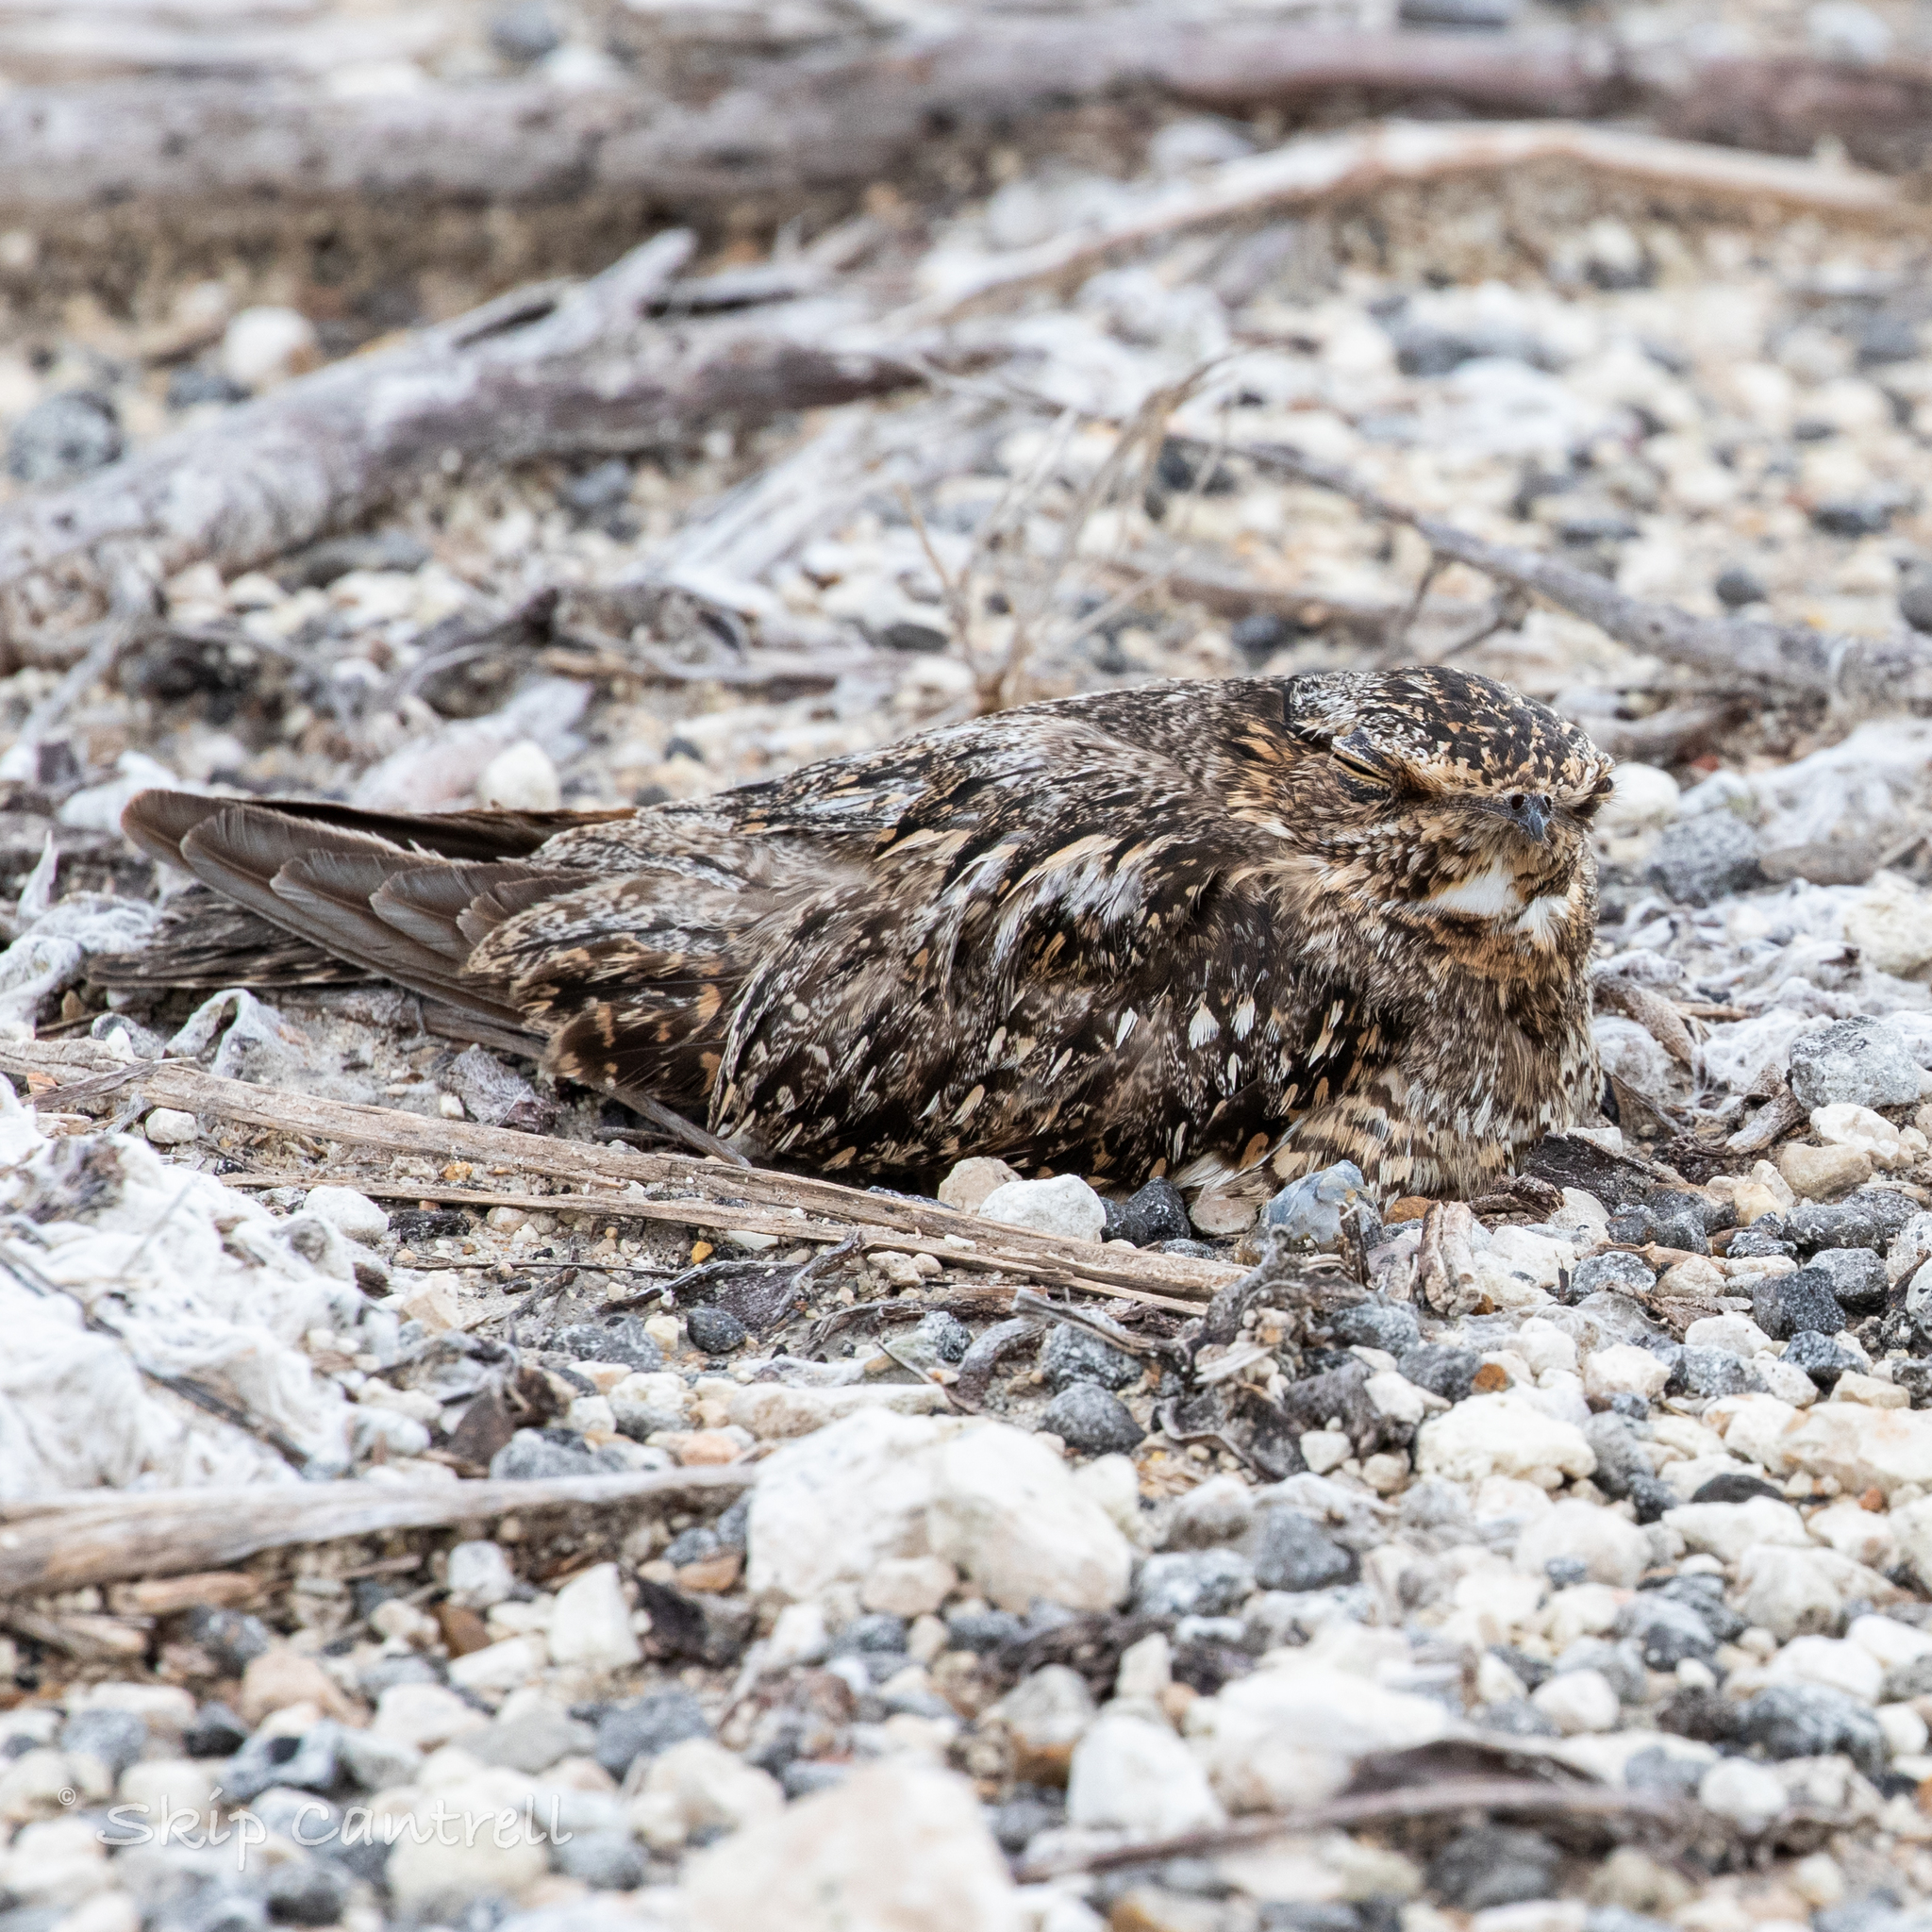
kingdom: Animalia
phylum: Chordata
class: Aves
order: Caprimulgiformes
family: Caprimulgidae
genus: Chordeiles
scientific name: Chordeiles acutipennis
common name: Lesser nighthawk
